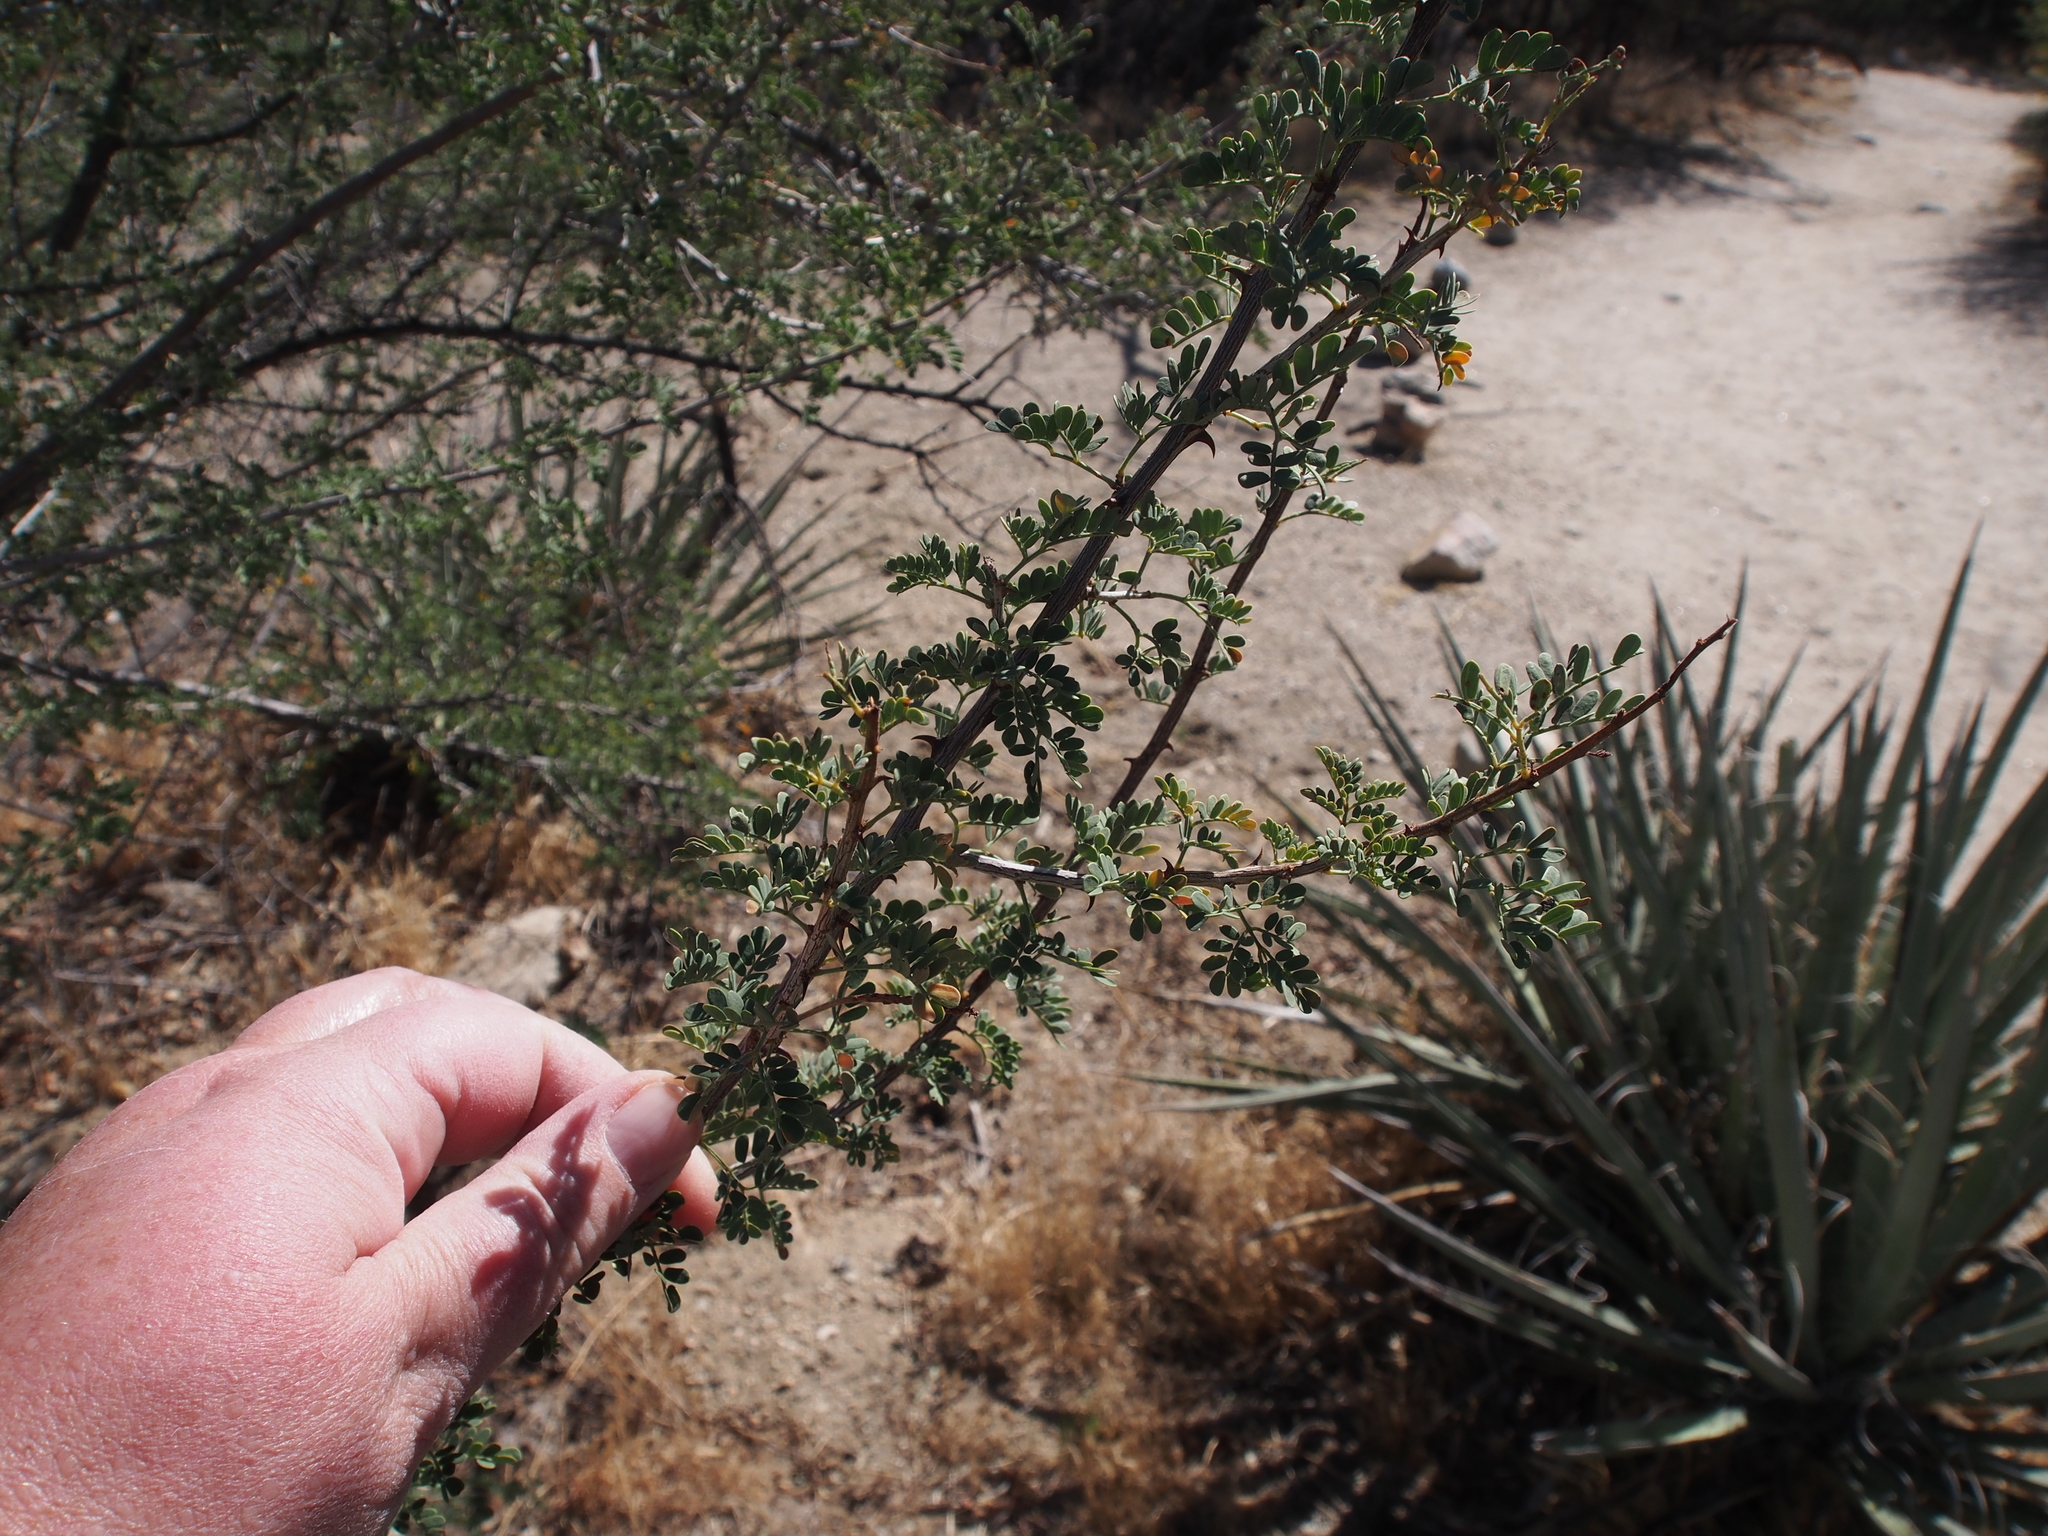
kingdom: Plantae
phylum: Tracheophyta
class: Magnoliopsida
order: Fabales
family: Fabaceae
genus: Senegalia
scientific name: Senegalia greggii
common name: Texas-mimosa
